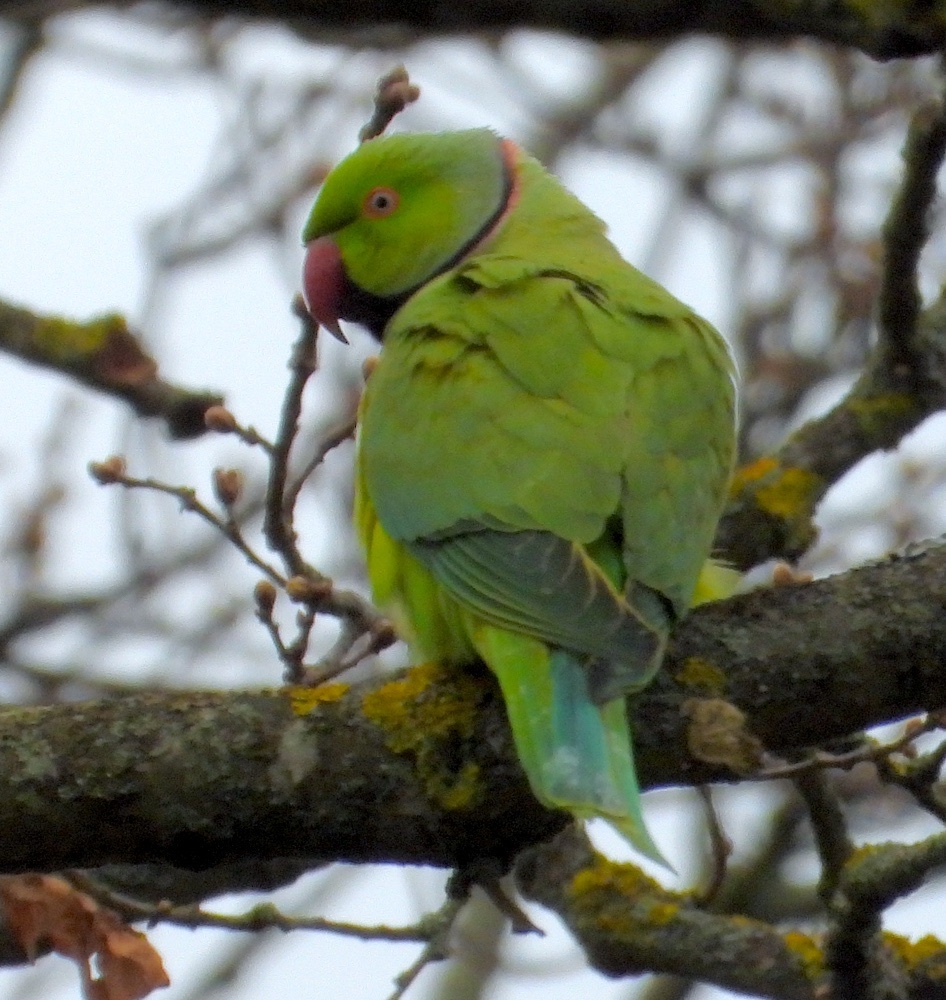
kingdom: Animalia
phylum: Chordata
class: Aves
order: Psittaciformes
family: Psittacidae
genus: Psittacula
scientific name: Psittacula krameri
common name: Rose-ringed parakeet
